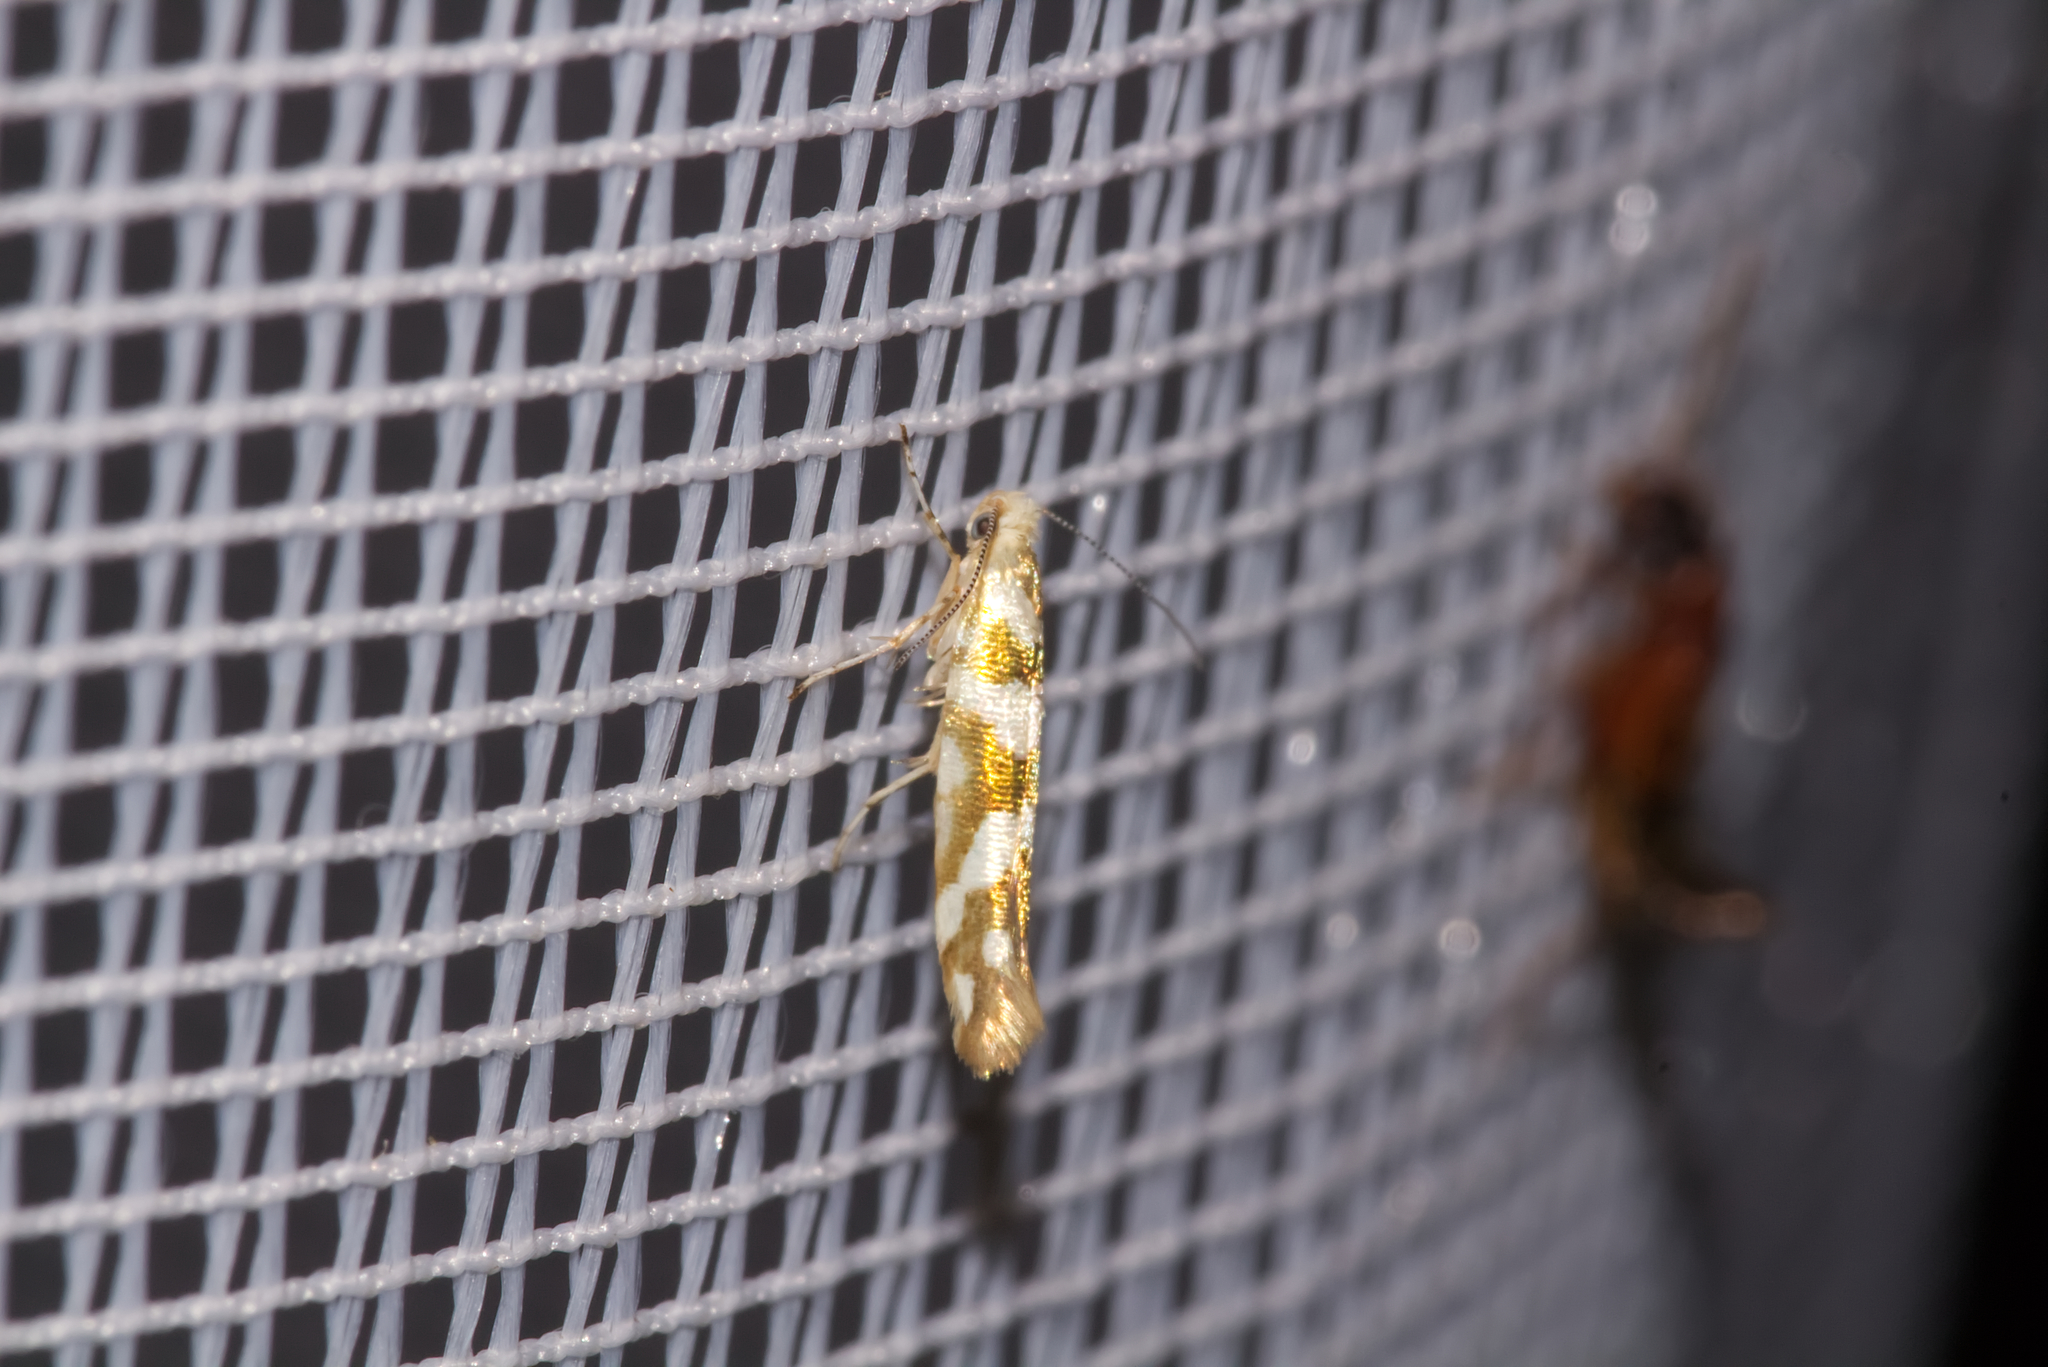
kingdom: Animalia
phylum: Arthropoda
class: Insecta
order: Lepidoptera
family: Argyresthiidae
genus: Argyresthia
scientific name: Argyresthia goedartella
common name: Golden argent
